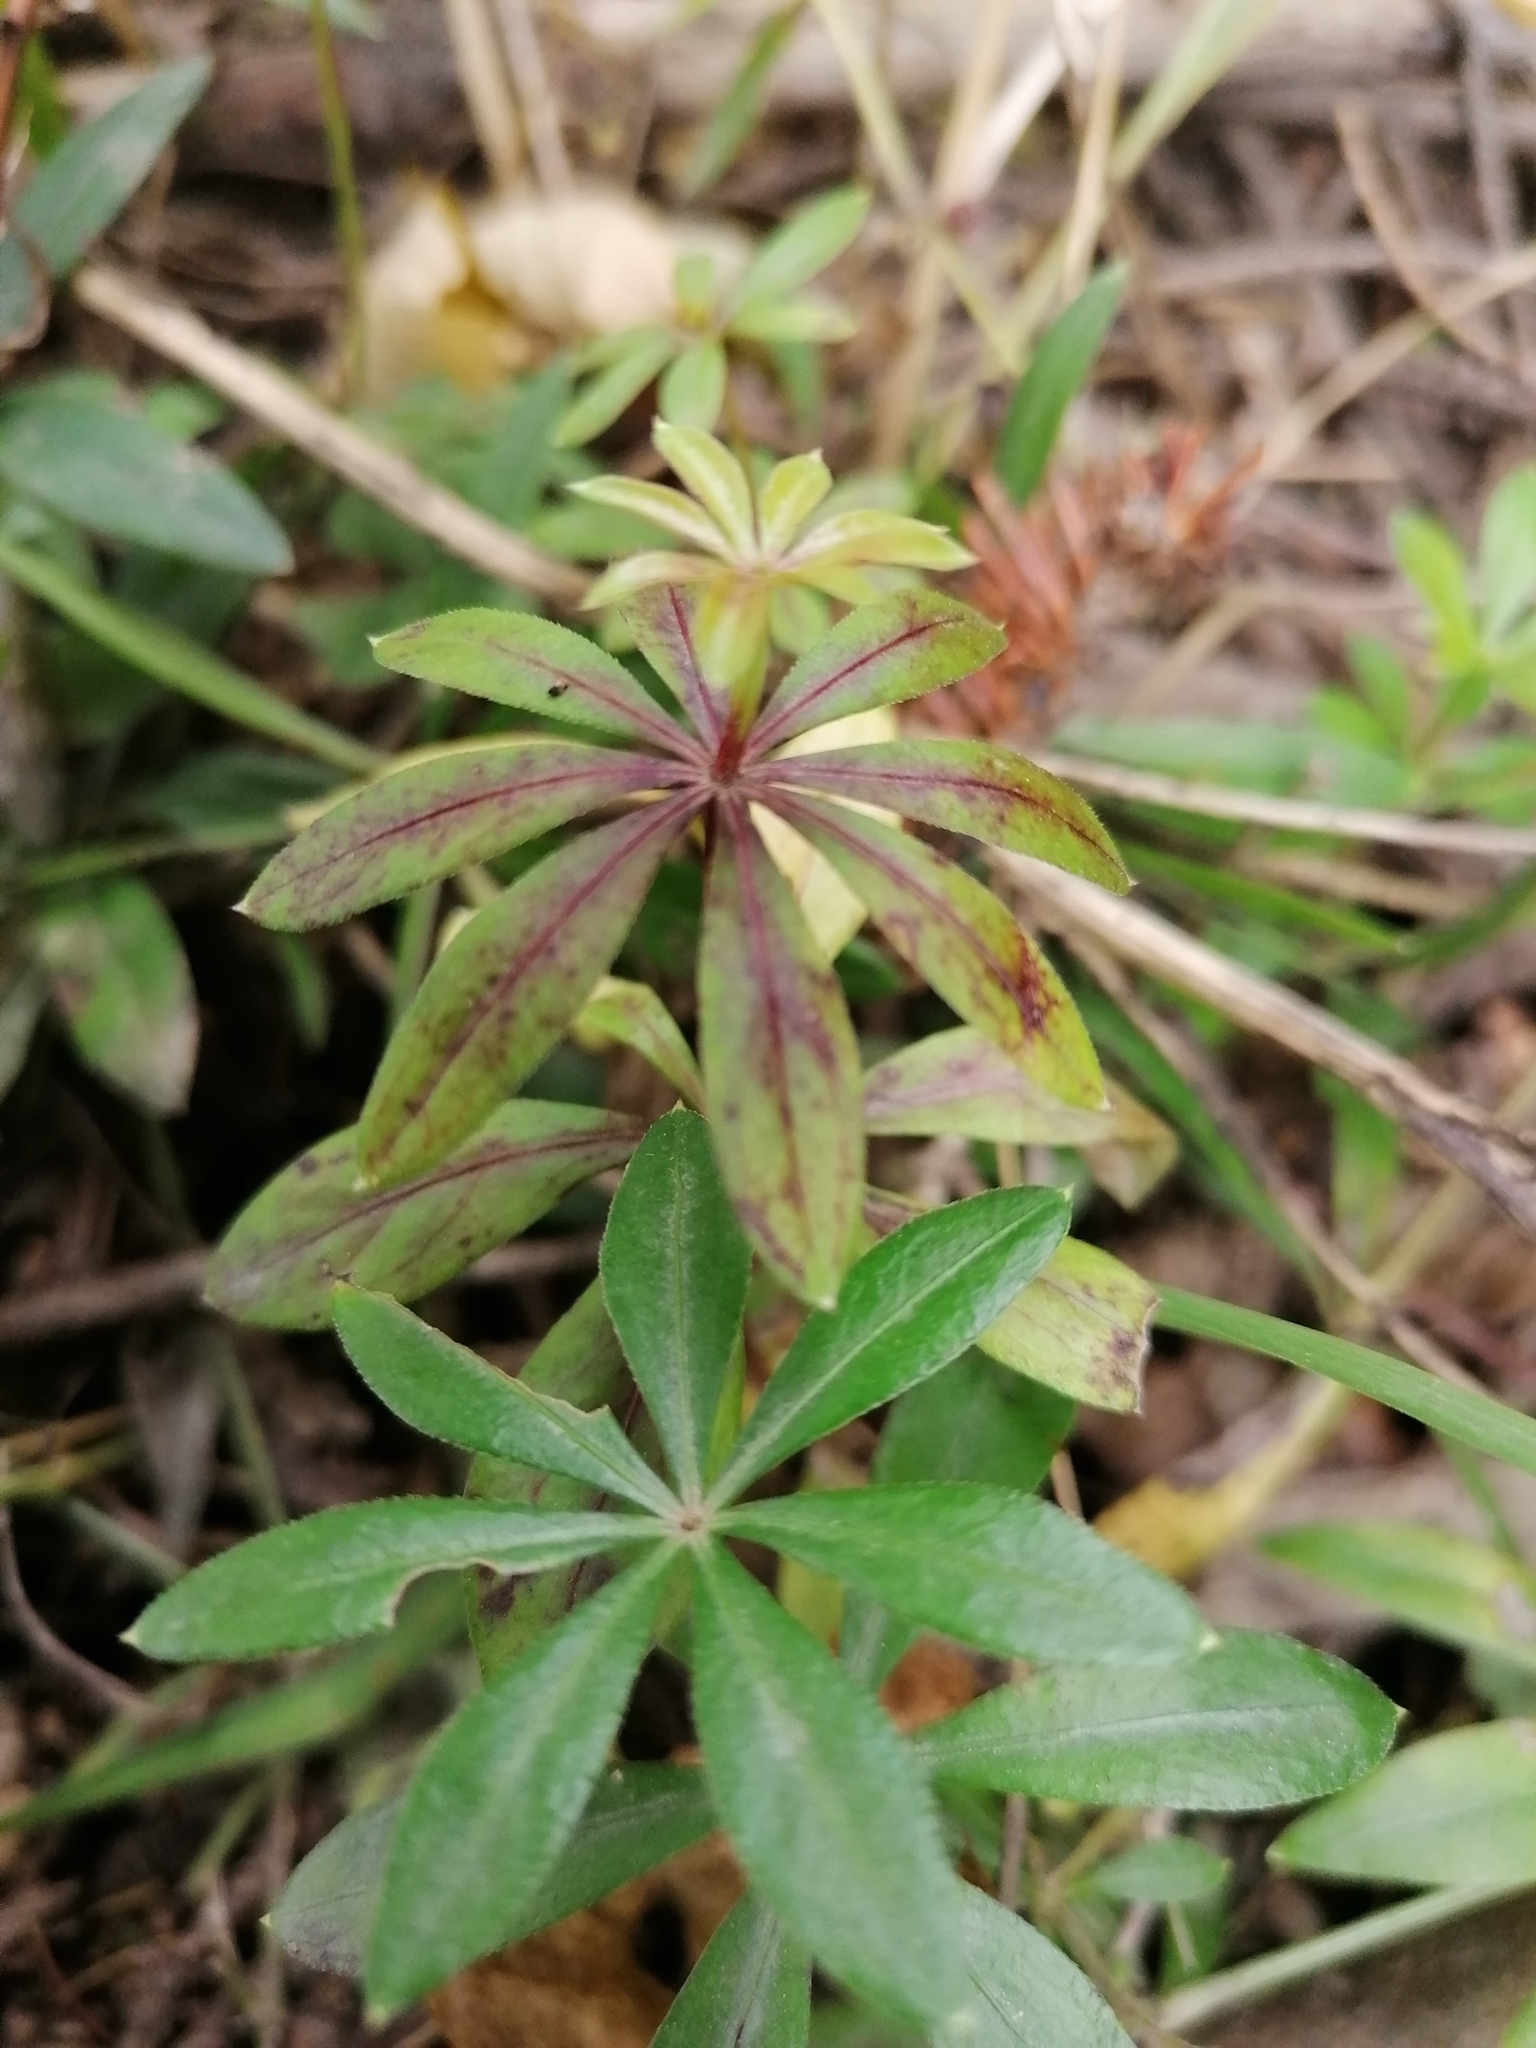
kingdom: Plantae
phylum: Tracheophyta
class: Magnoliopsida
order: Gentianales
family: Rubiaceae
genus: Galium
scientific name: Galium odoratum
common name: Sweet woodruff
